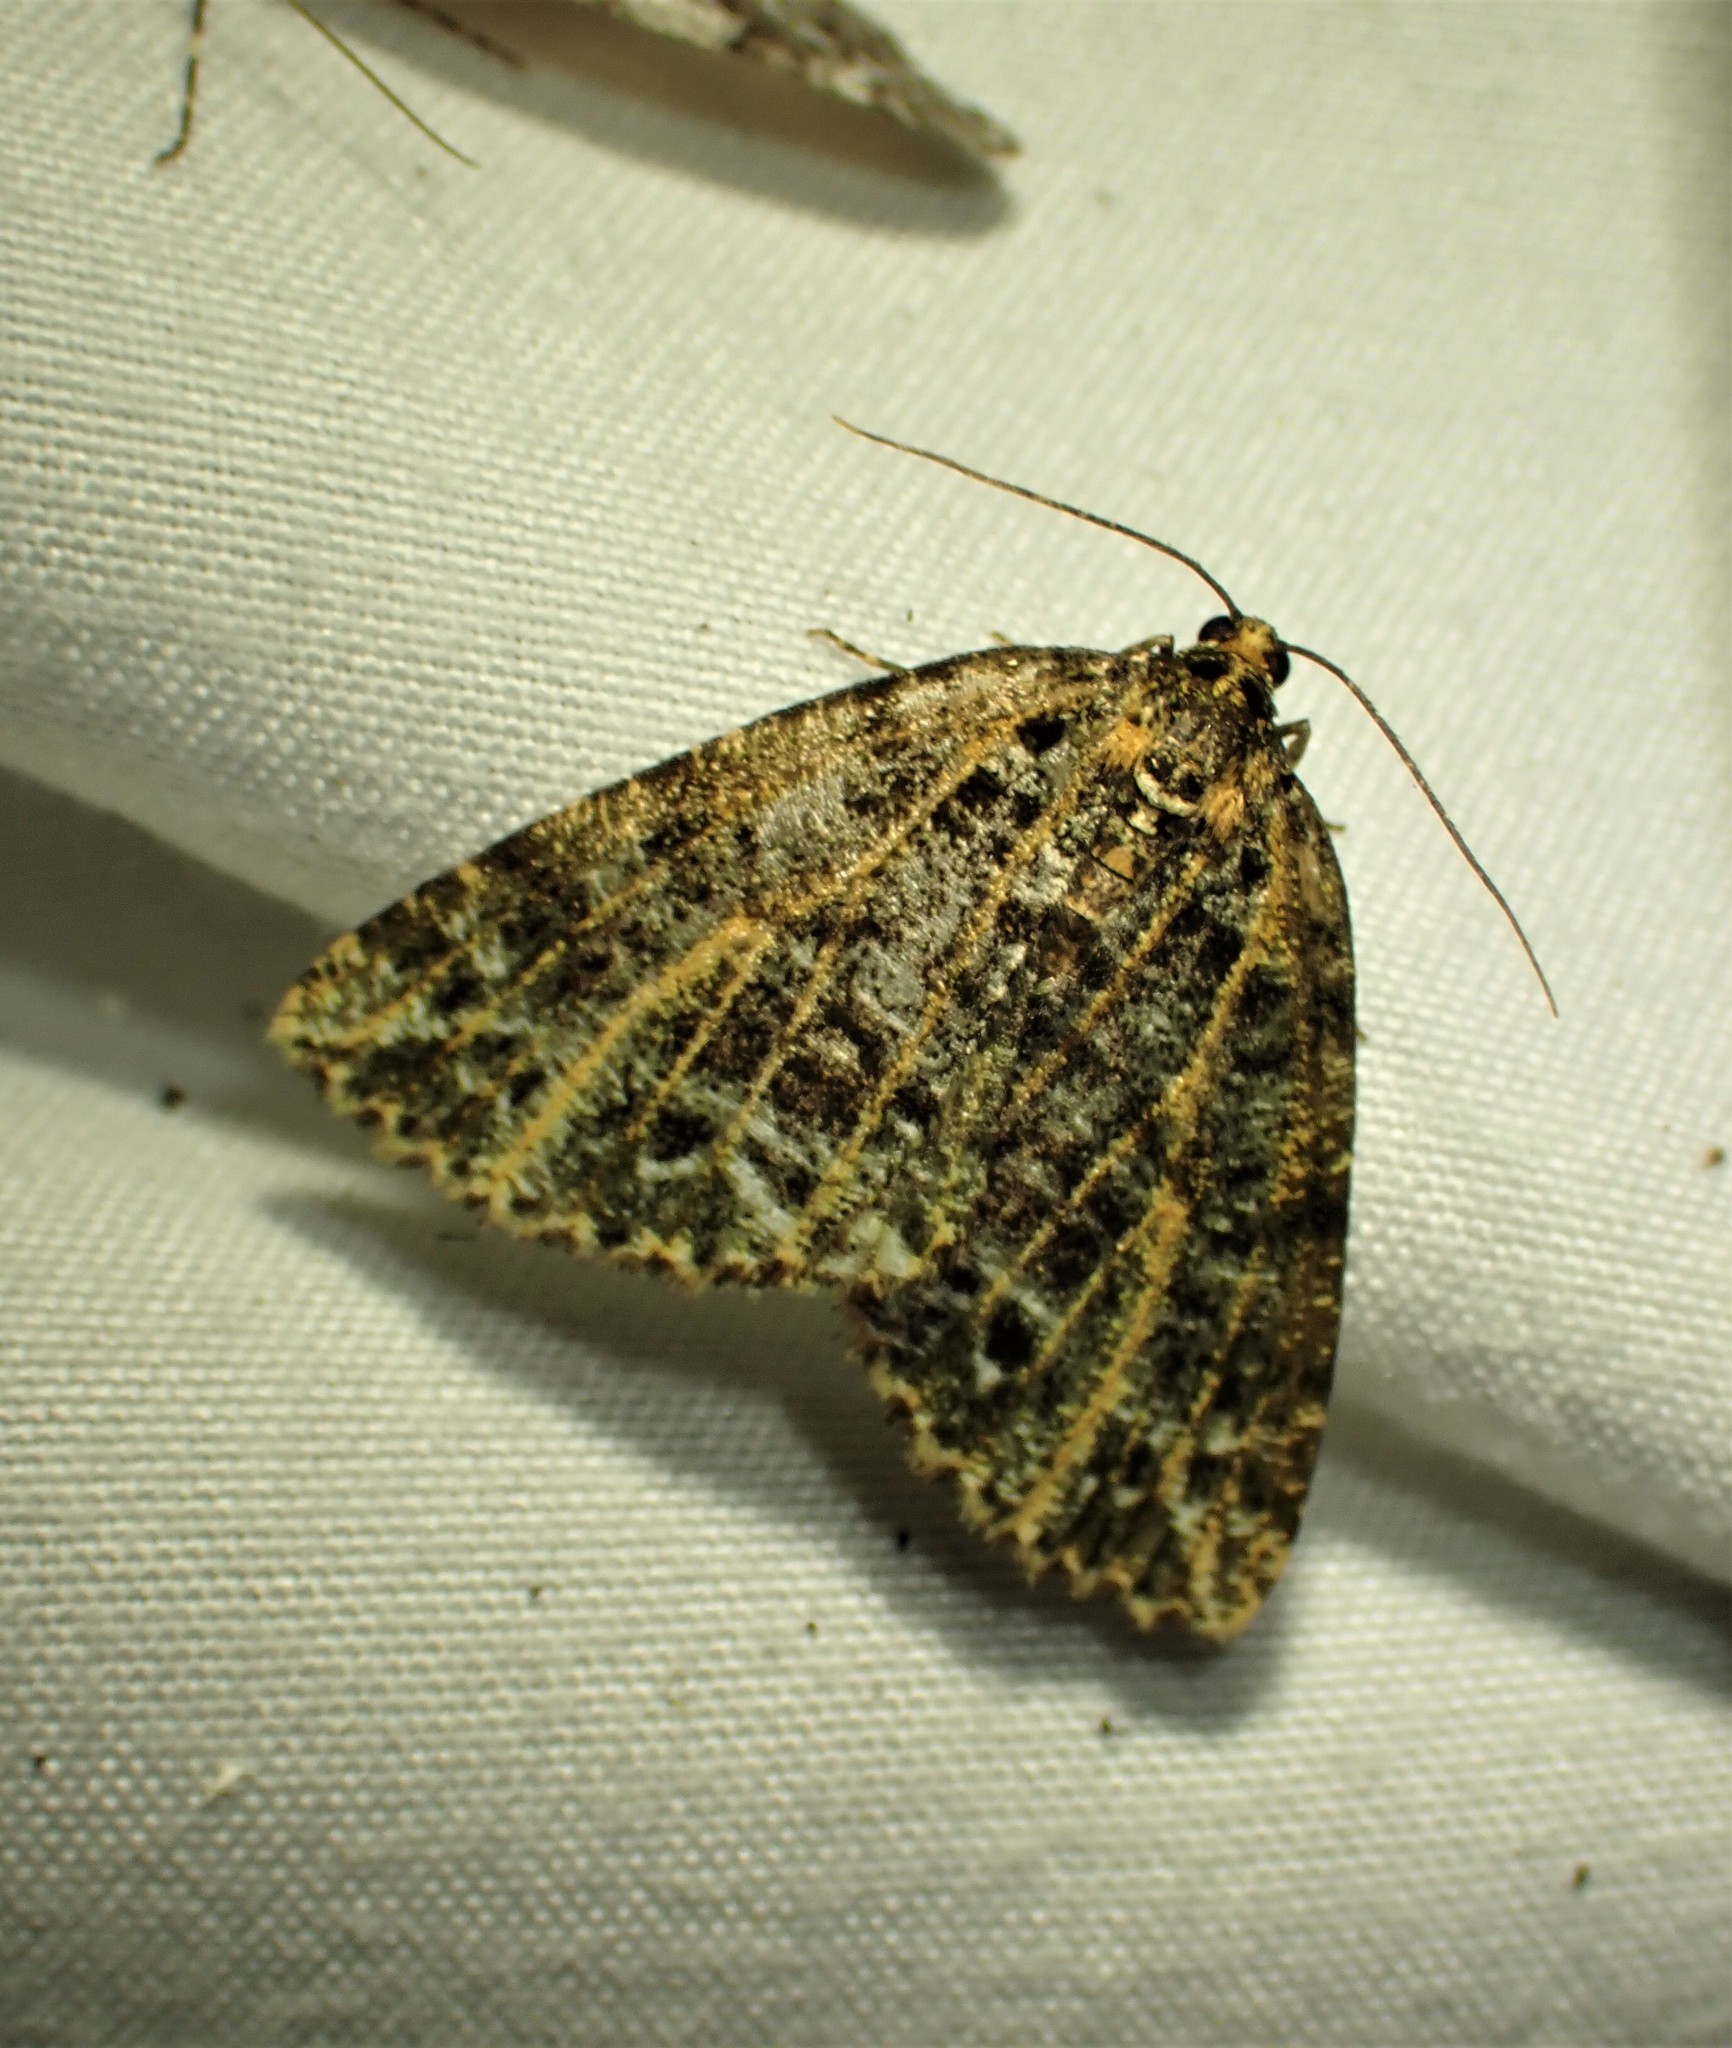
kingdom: Animalia
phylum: Arthropoda
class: Insecta
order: Lepidoptera
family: Geometridae
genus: Orthofidonia
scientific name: Orthofidonia flavivenata
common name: Yellow-veined geometer moth
